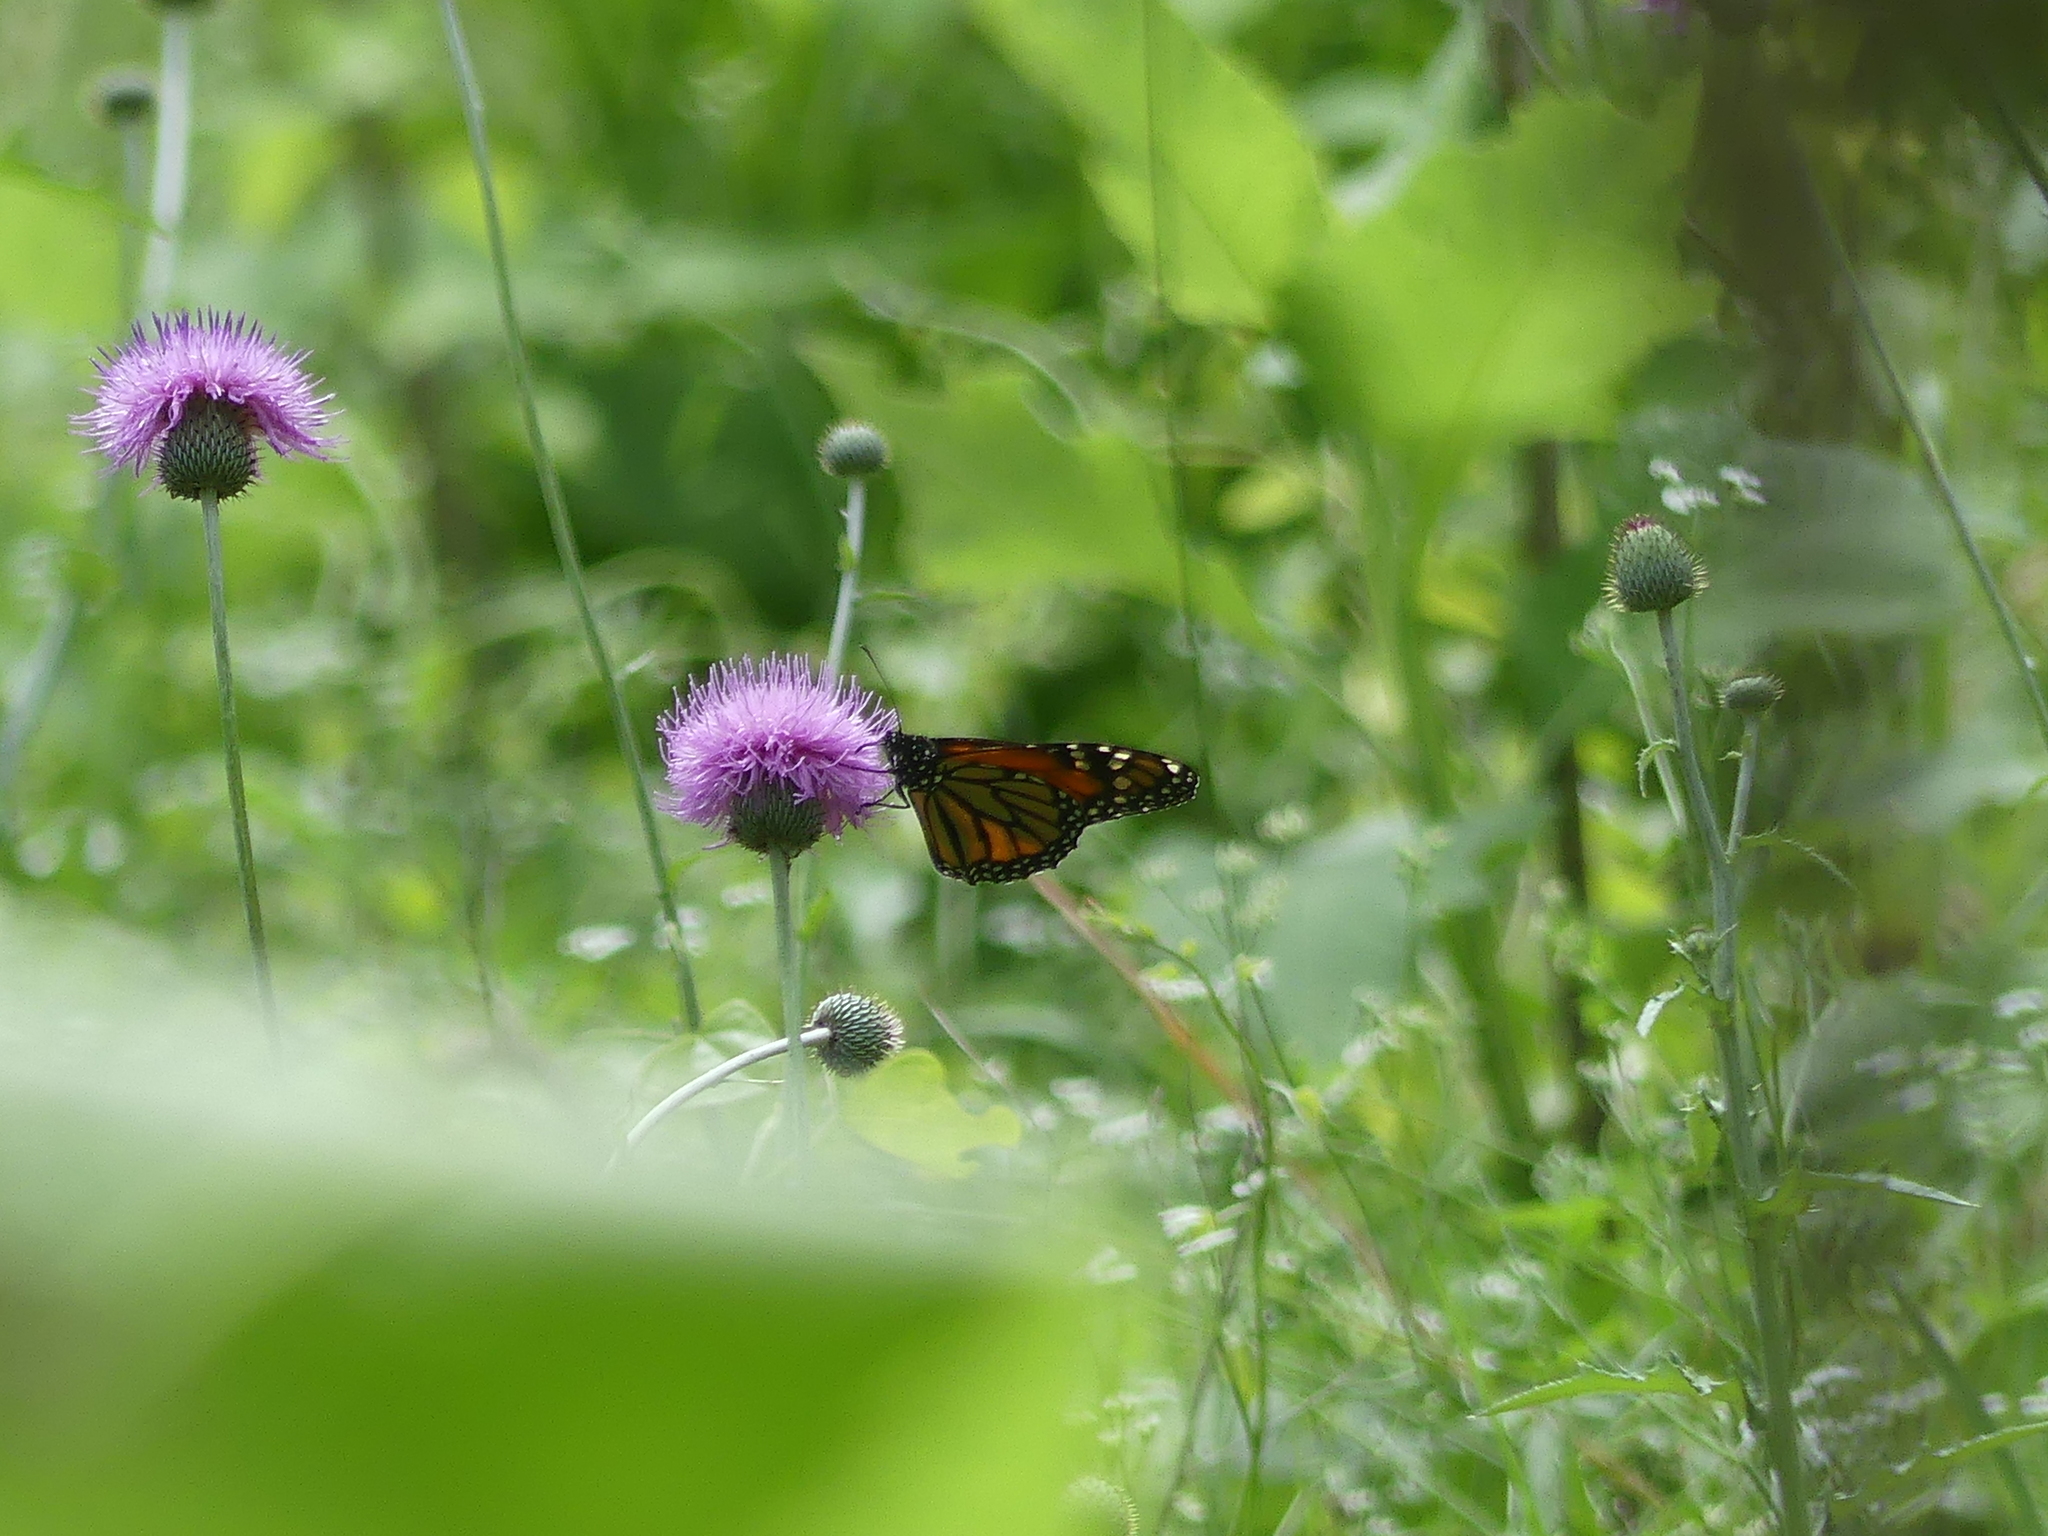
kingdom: Animalia
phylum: Arthropoda
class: Insecta
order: Lepidoptera
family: Nymphalidae
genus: Danaus
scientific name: Danaus plexippus
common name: Monarch
